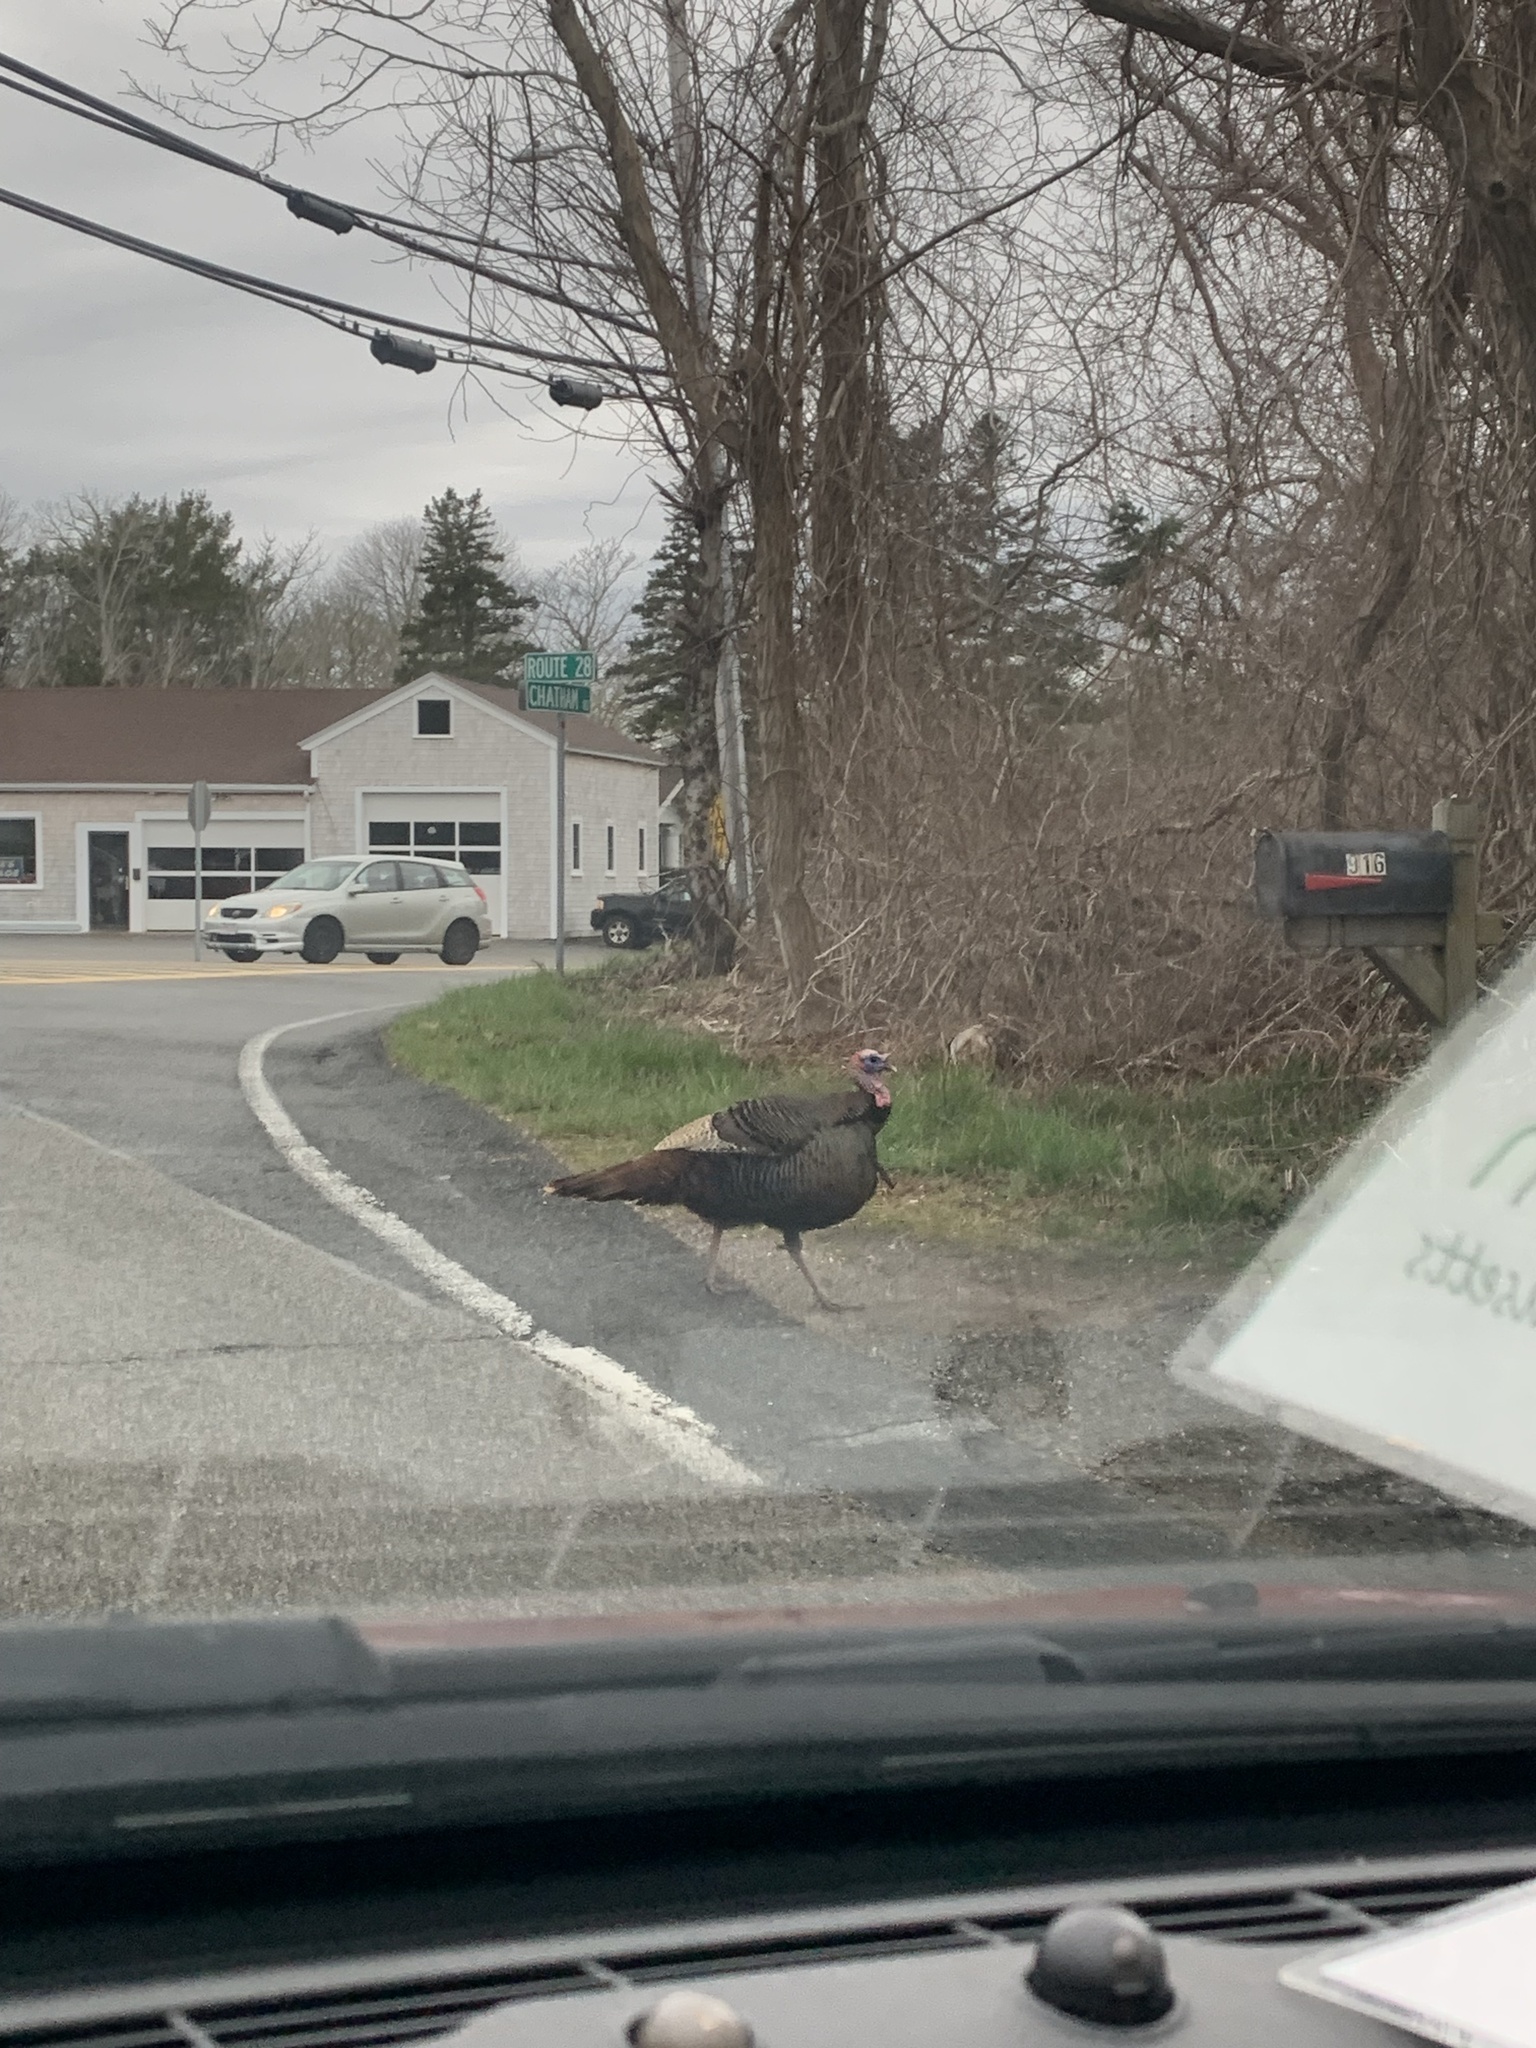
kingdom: Animalia
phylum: Chordata
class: Aves
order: Galliformes
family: Phasianidae
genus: Meleagris
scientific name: Meleagris gallopavo
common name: Wild turkey
